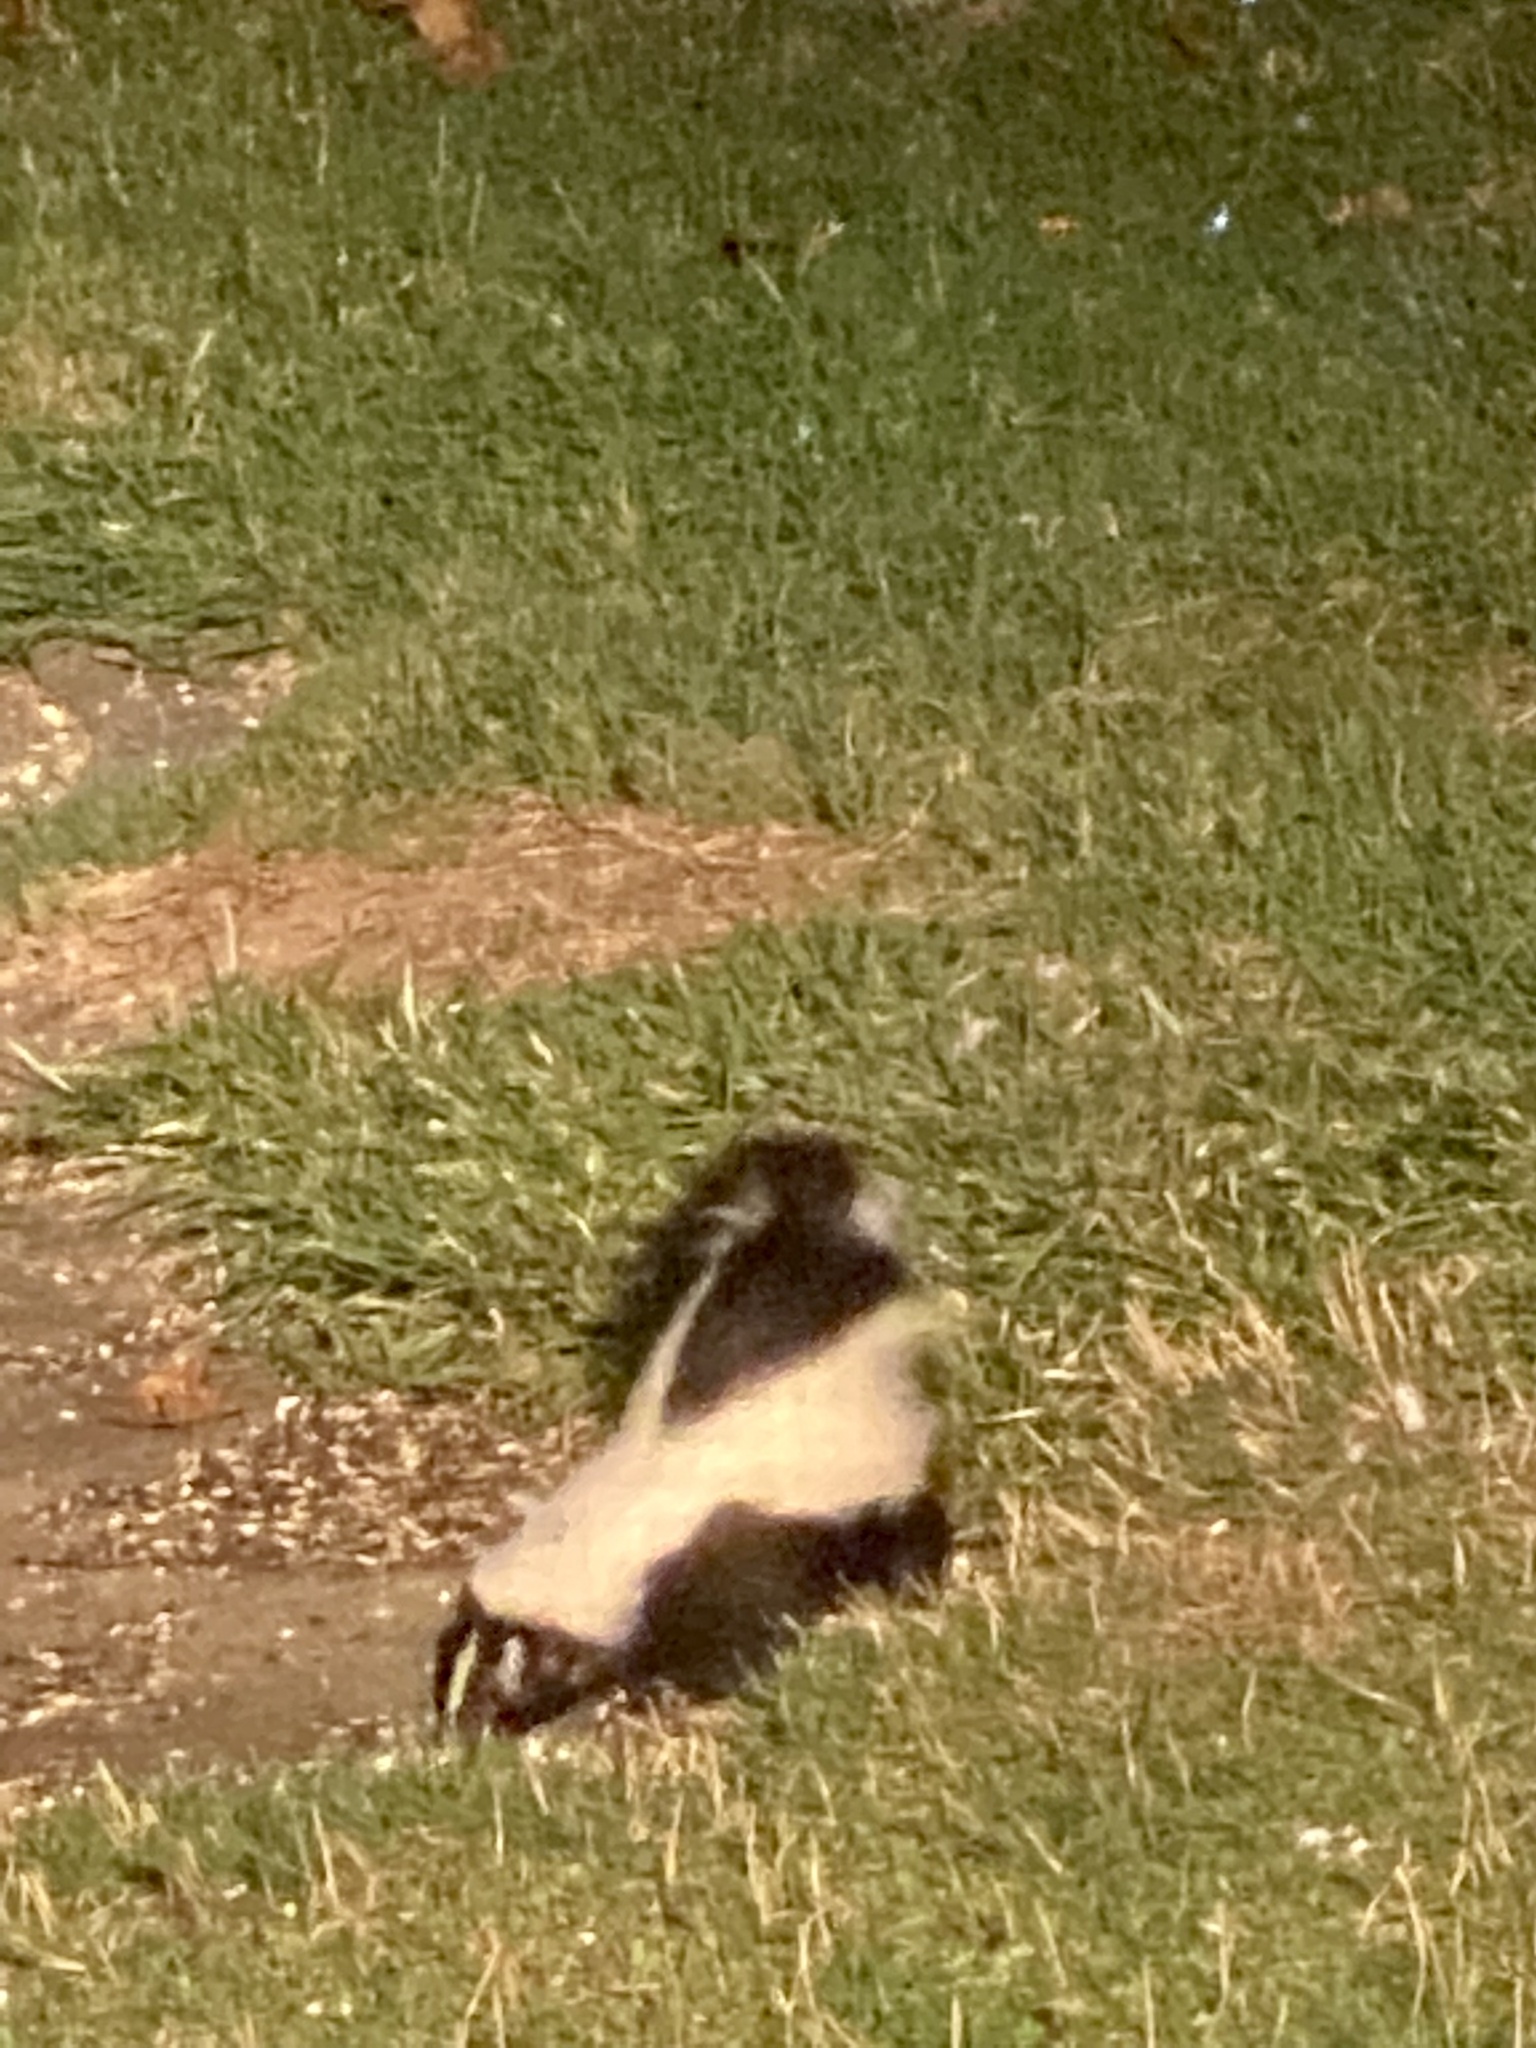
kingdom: Animalia
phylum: Chordata
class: Mammalia
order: Carnivora
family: Mephitidae
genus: Mephitis
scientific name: Mephitis mephitis
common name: Striped skunk
